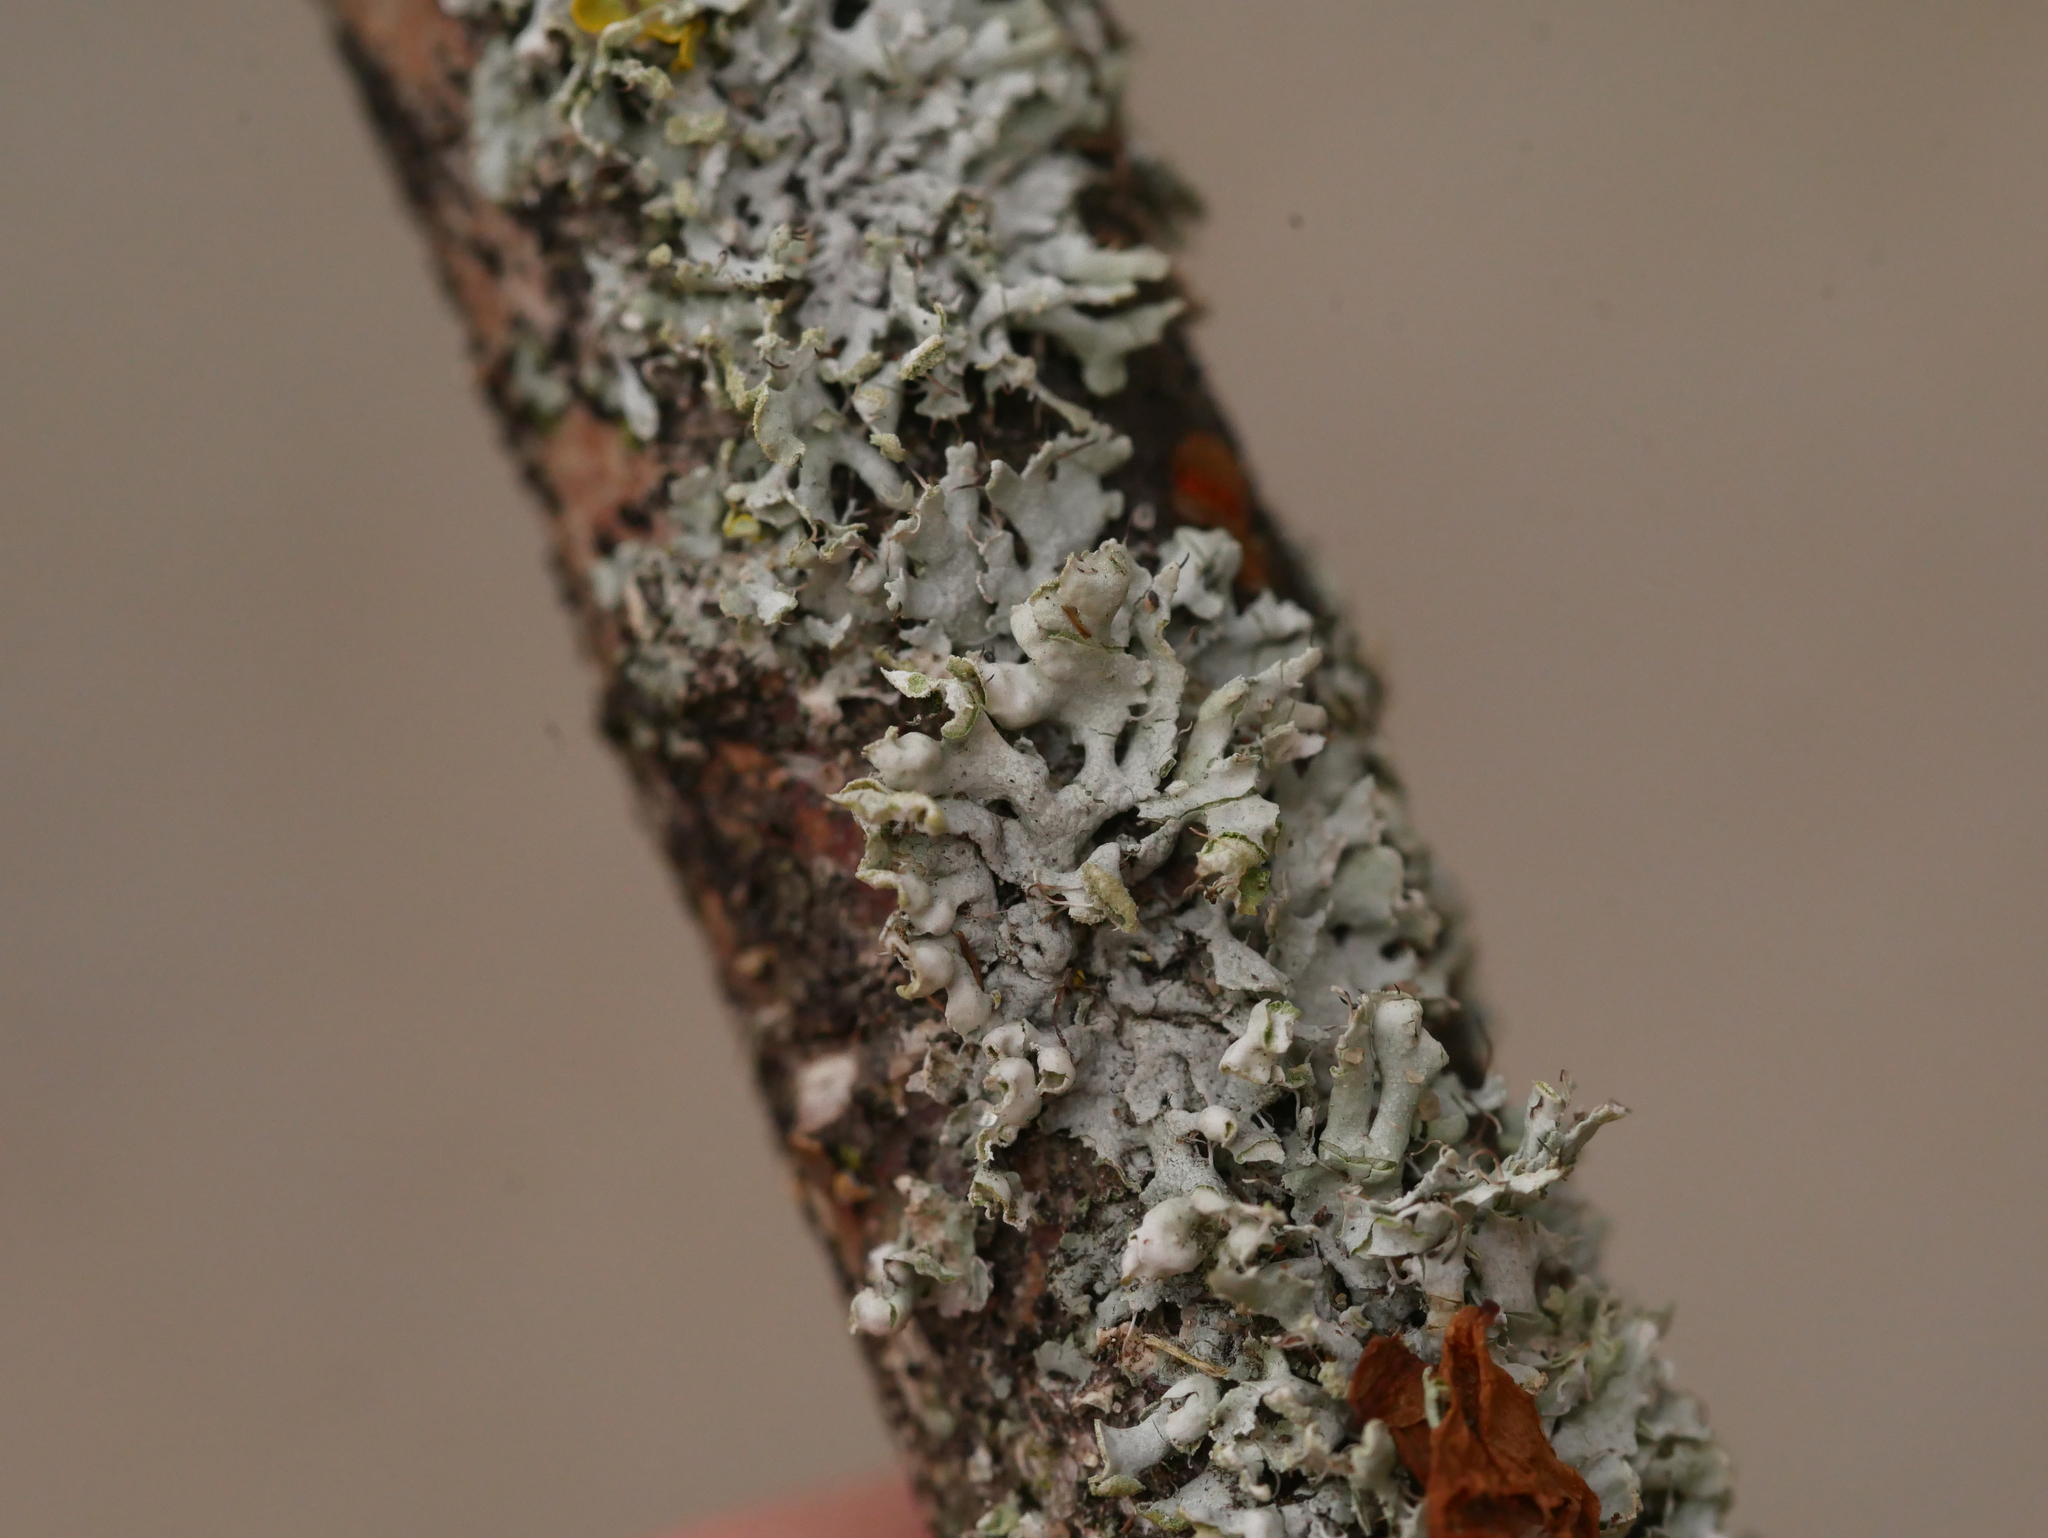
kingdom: Fungi
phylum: Ascomycota
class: Lecanoromycetes
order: Caliciales
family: Physciaceae
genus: Physcia
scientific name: Physcia adscendens
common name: Hooded rosette lichen
